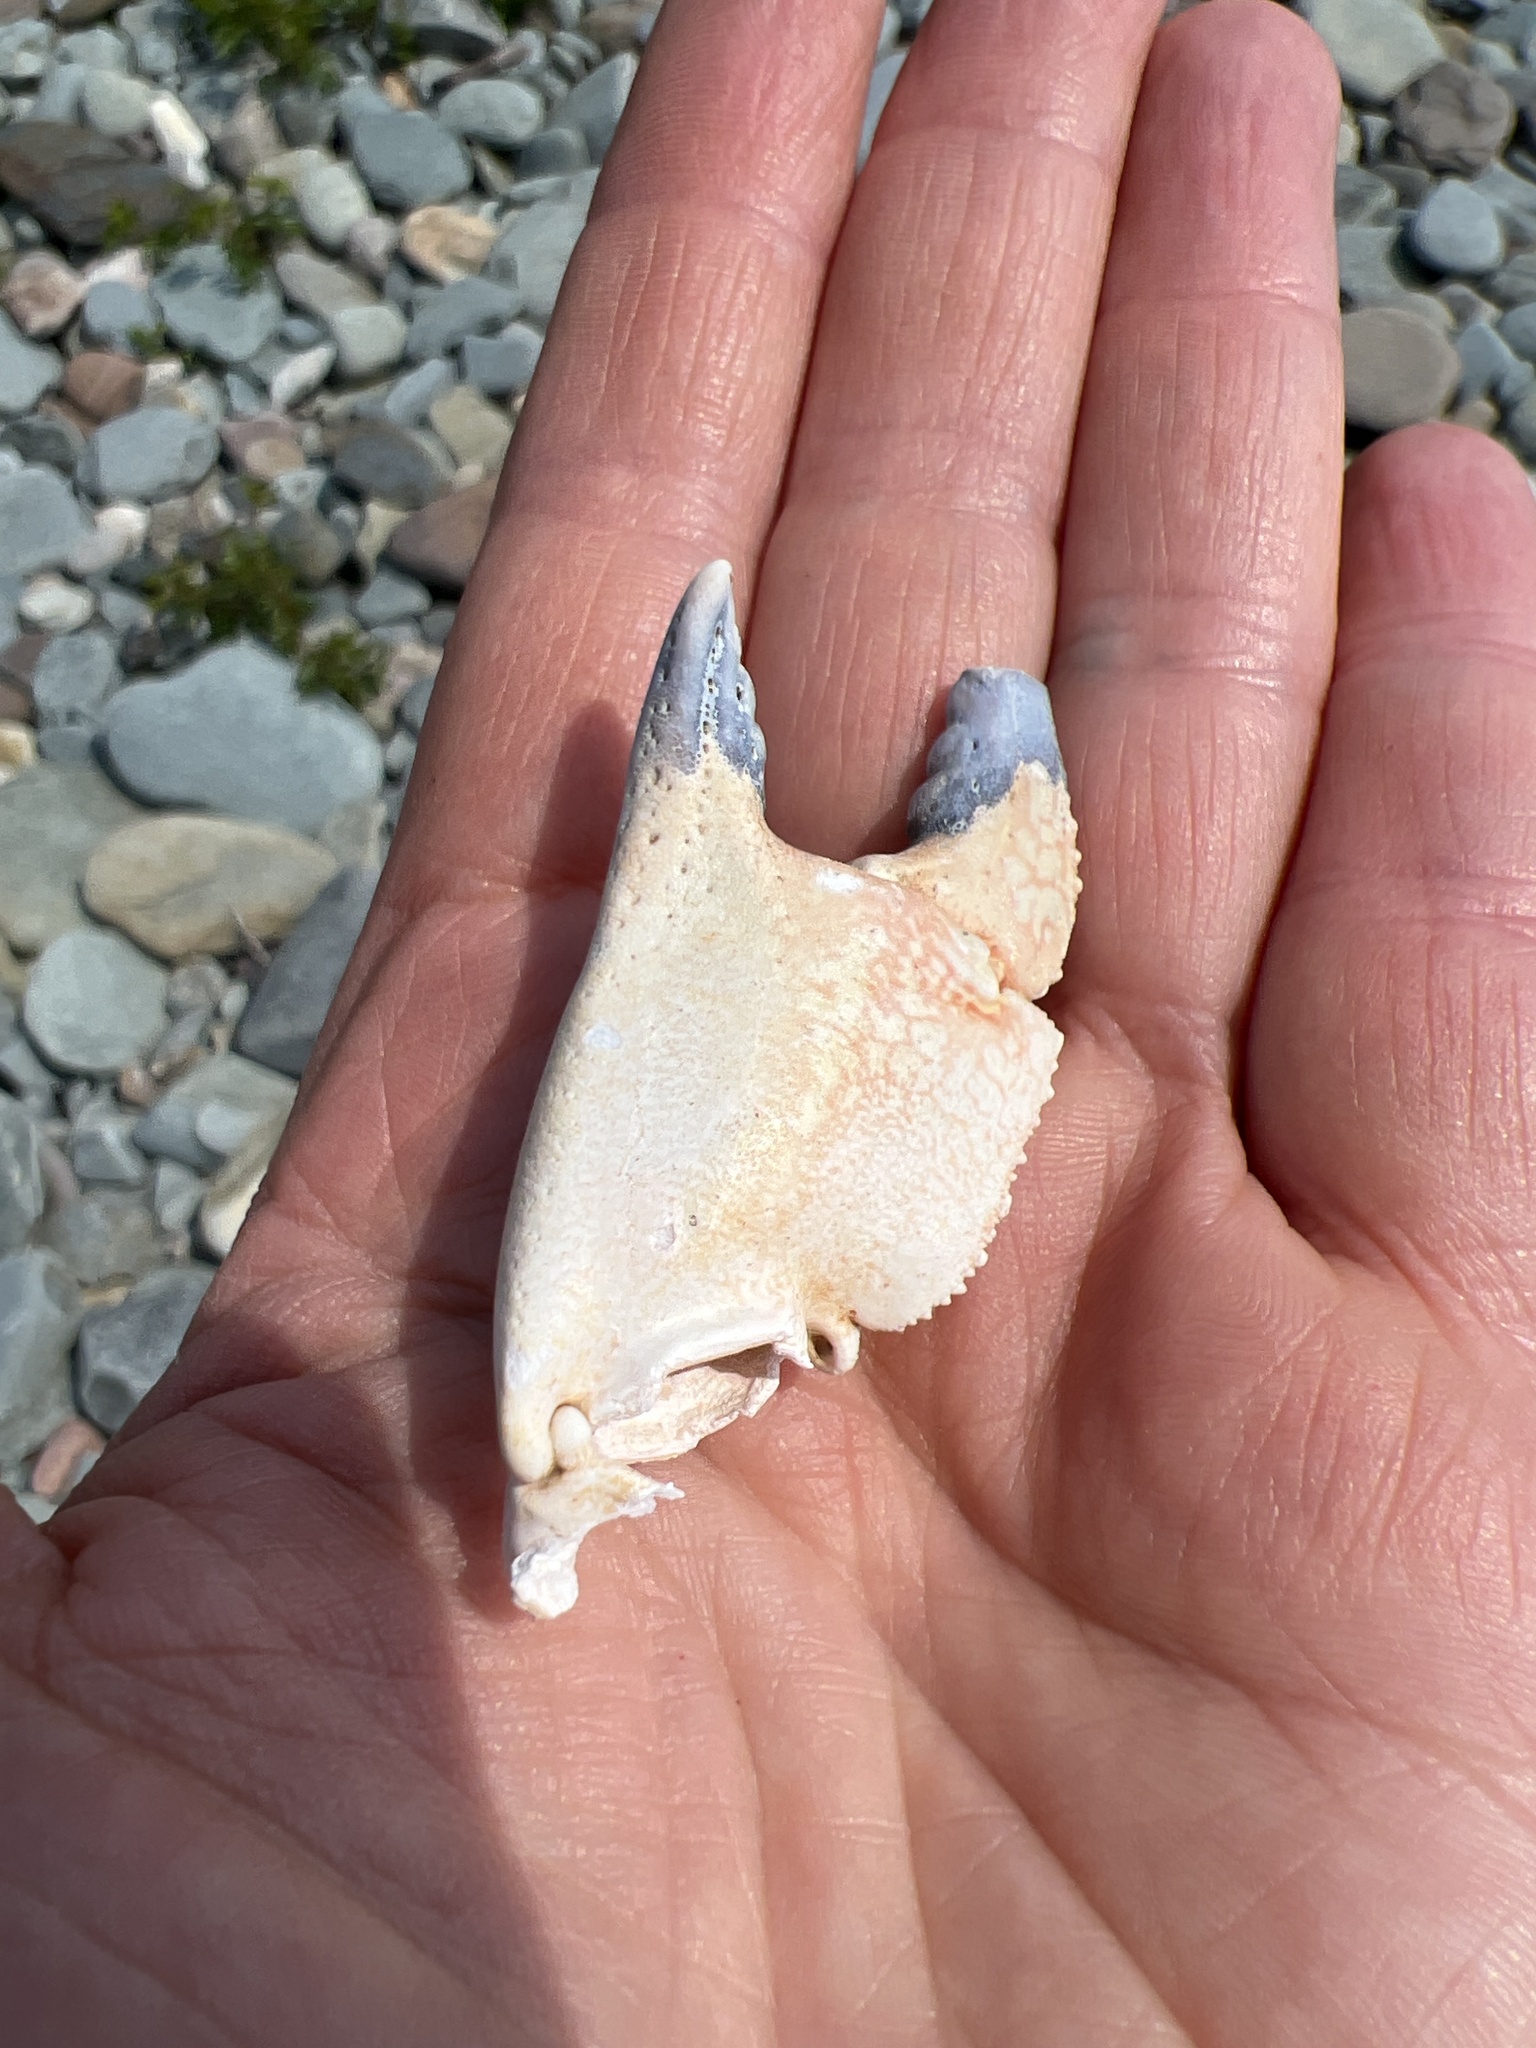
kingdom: Animalia
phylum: Arthropoda
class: Malacostraca
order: Decapoda
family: Cancridae
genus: Cancer
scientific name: Cancer borealis
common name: Jonah crab
